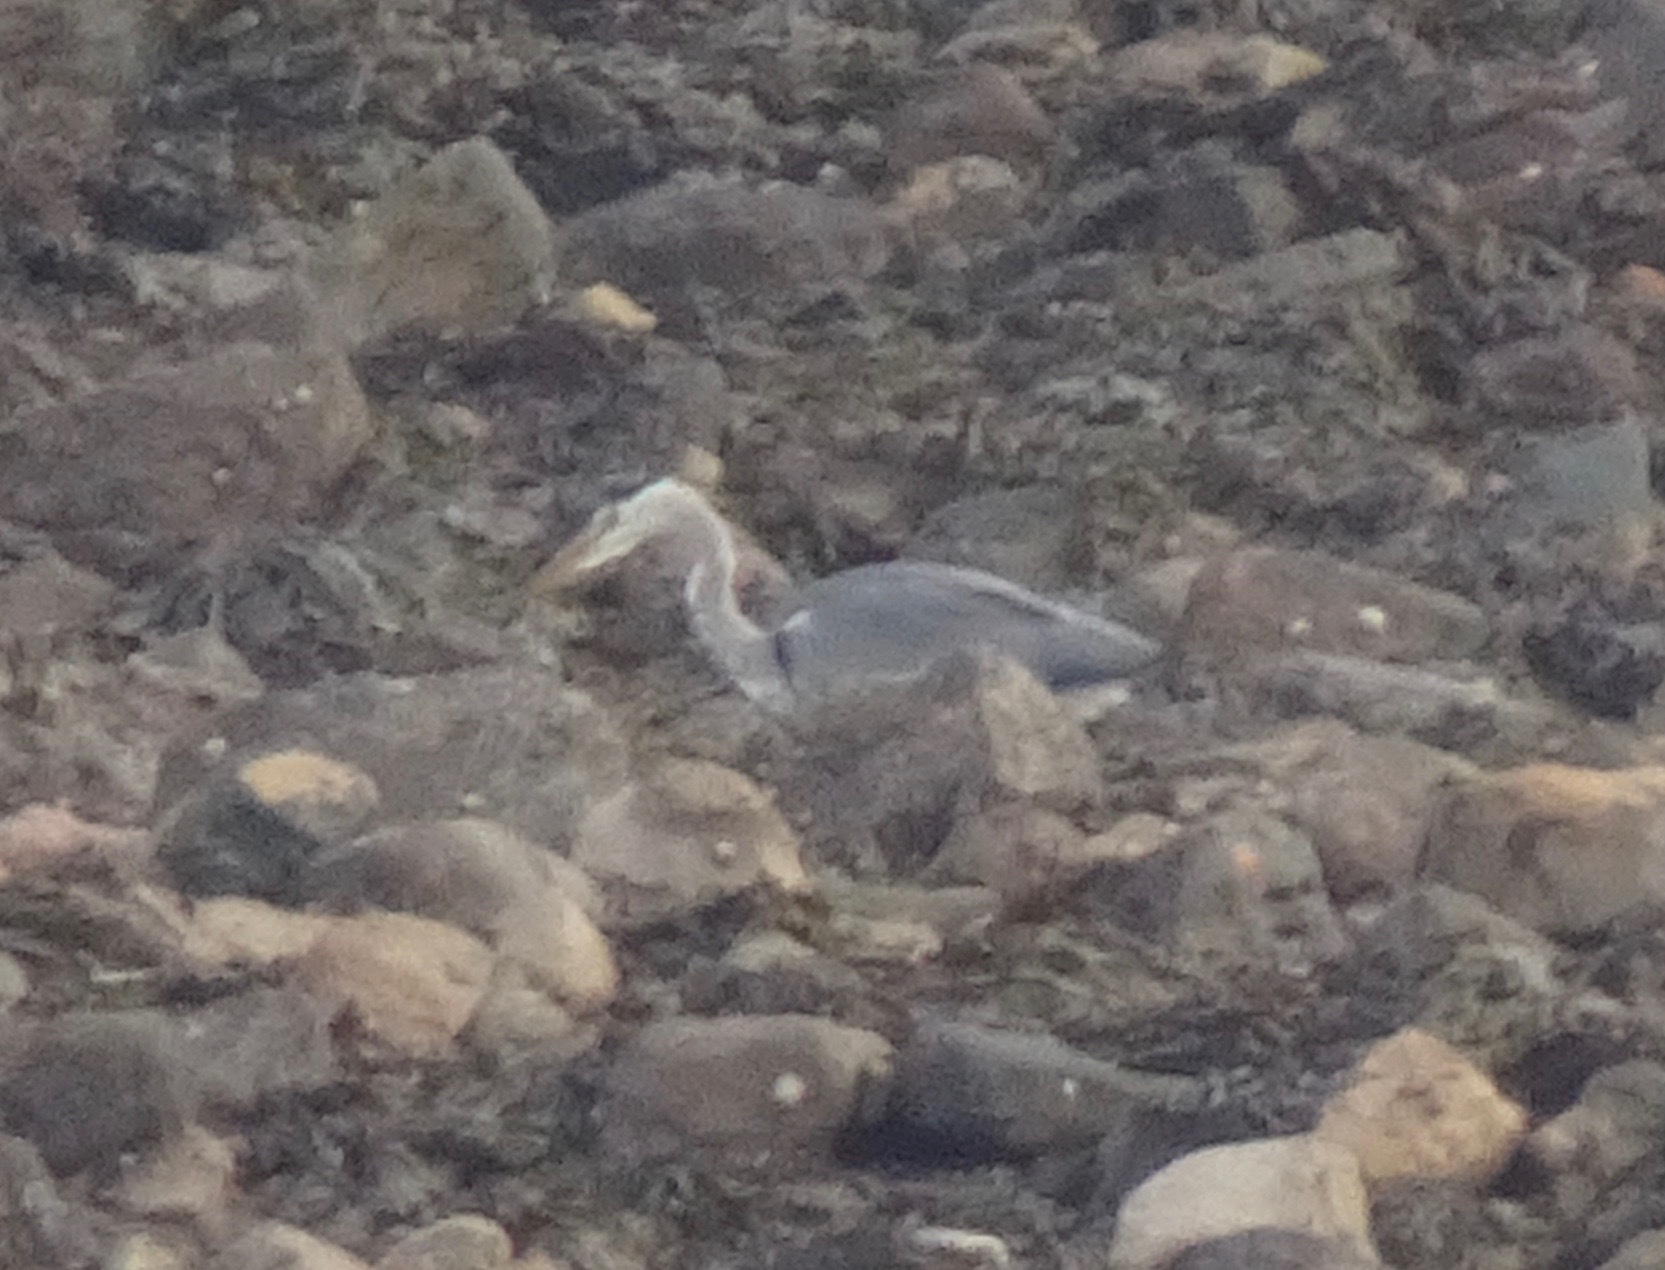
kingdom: Animalia
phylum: Chordata
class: Aves
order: Pelecaniformes
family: Ardeidae
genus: Ardea
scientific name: Ardea cinerea
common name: Grey heron
